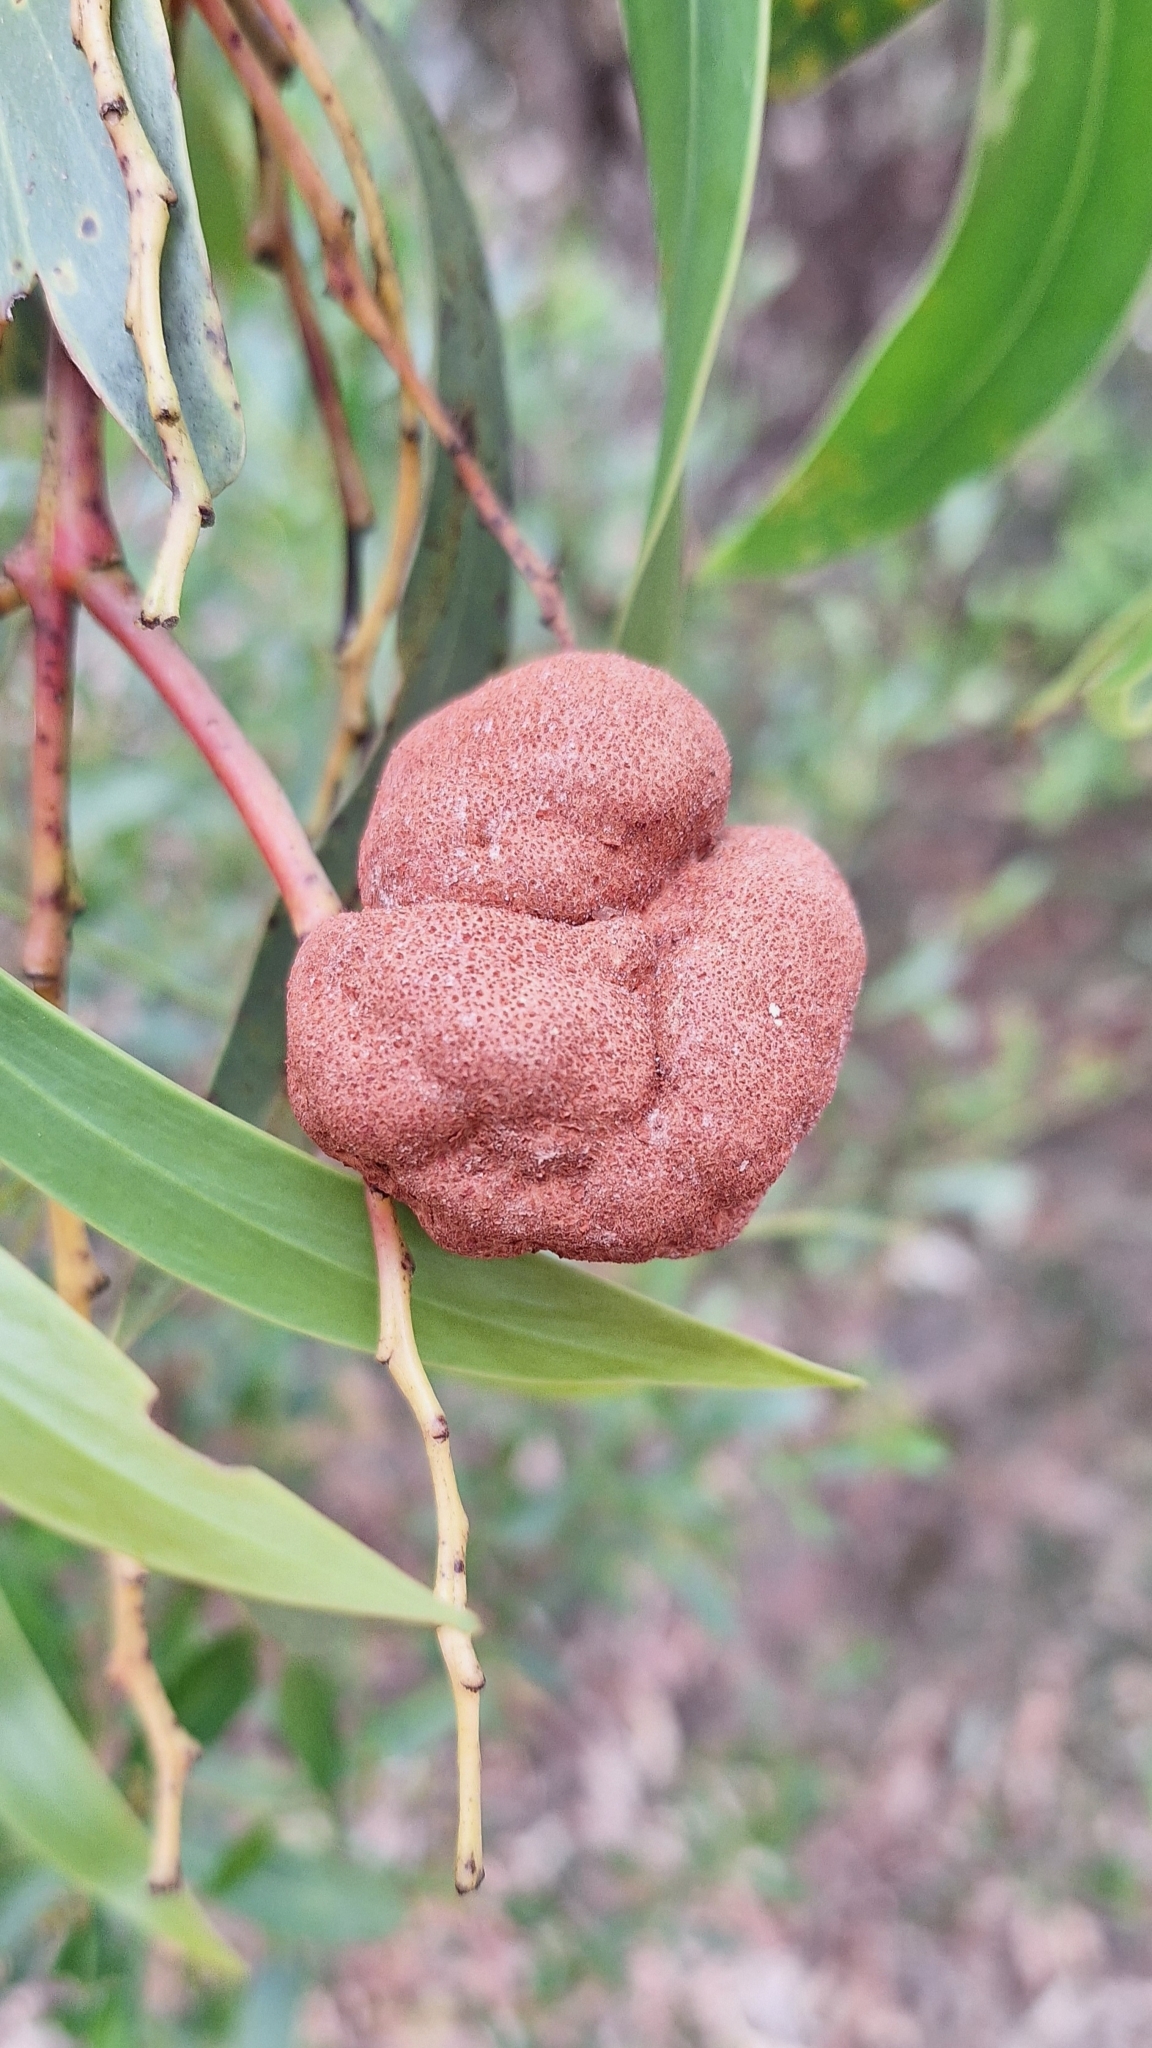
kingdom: Fungi
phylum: Basidiomycota
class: Pucciniomycetes
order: Pucciniales
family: Uromycladiaceae
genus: Uromycladium
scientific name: Uromycladium
